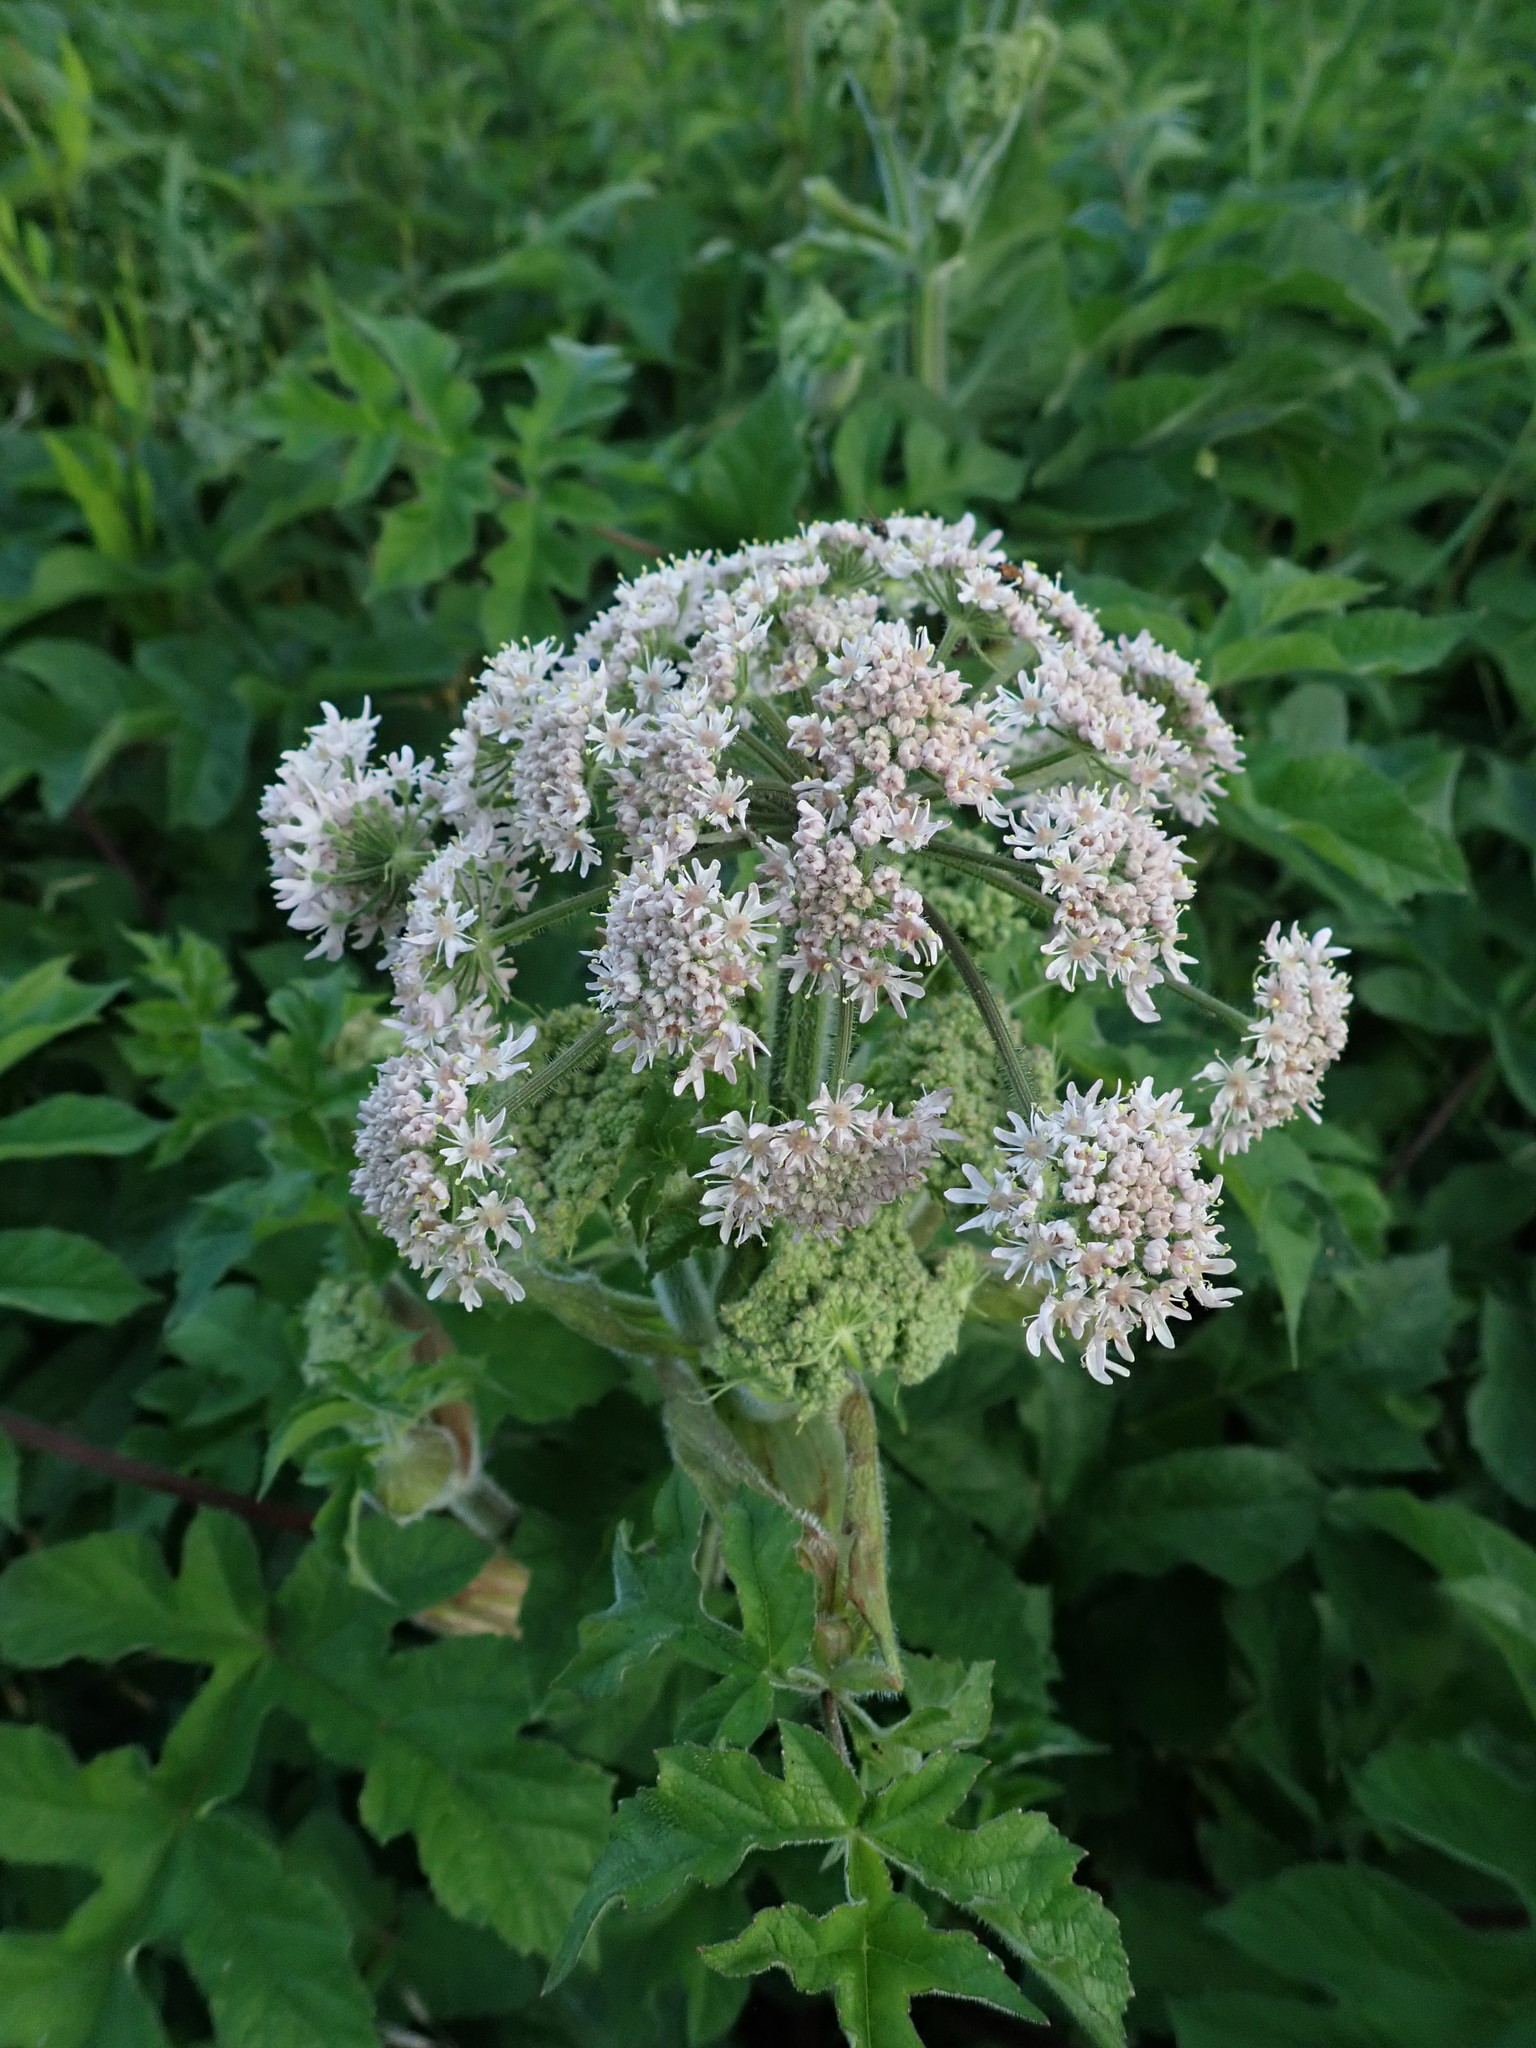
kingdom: Plantae
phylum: Tracheophyta
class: Magnoliopsida
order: Apiales
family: Apiaceae
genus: Heracleum
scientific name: Heracleum sphondylium
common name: Hogweed
